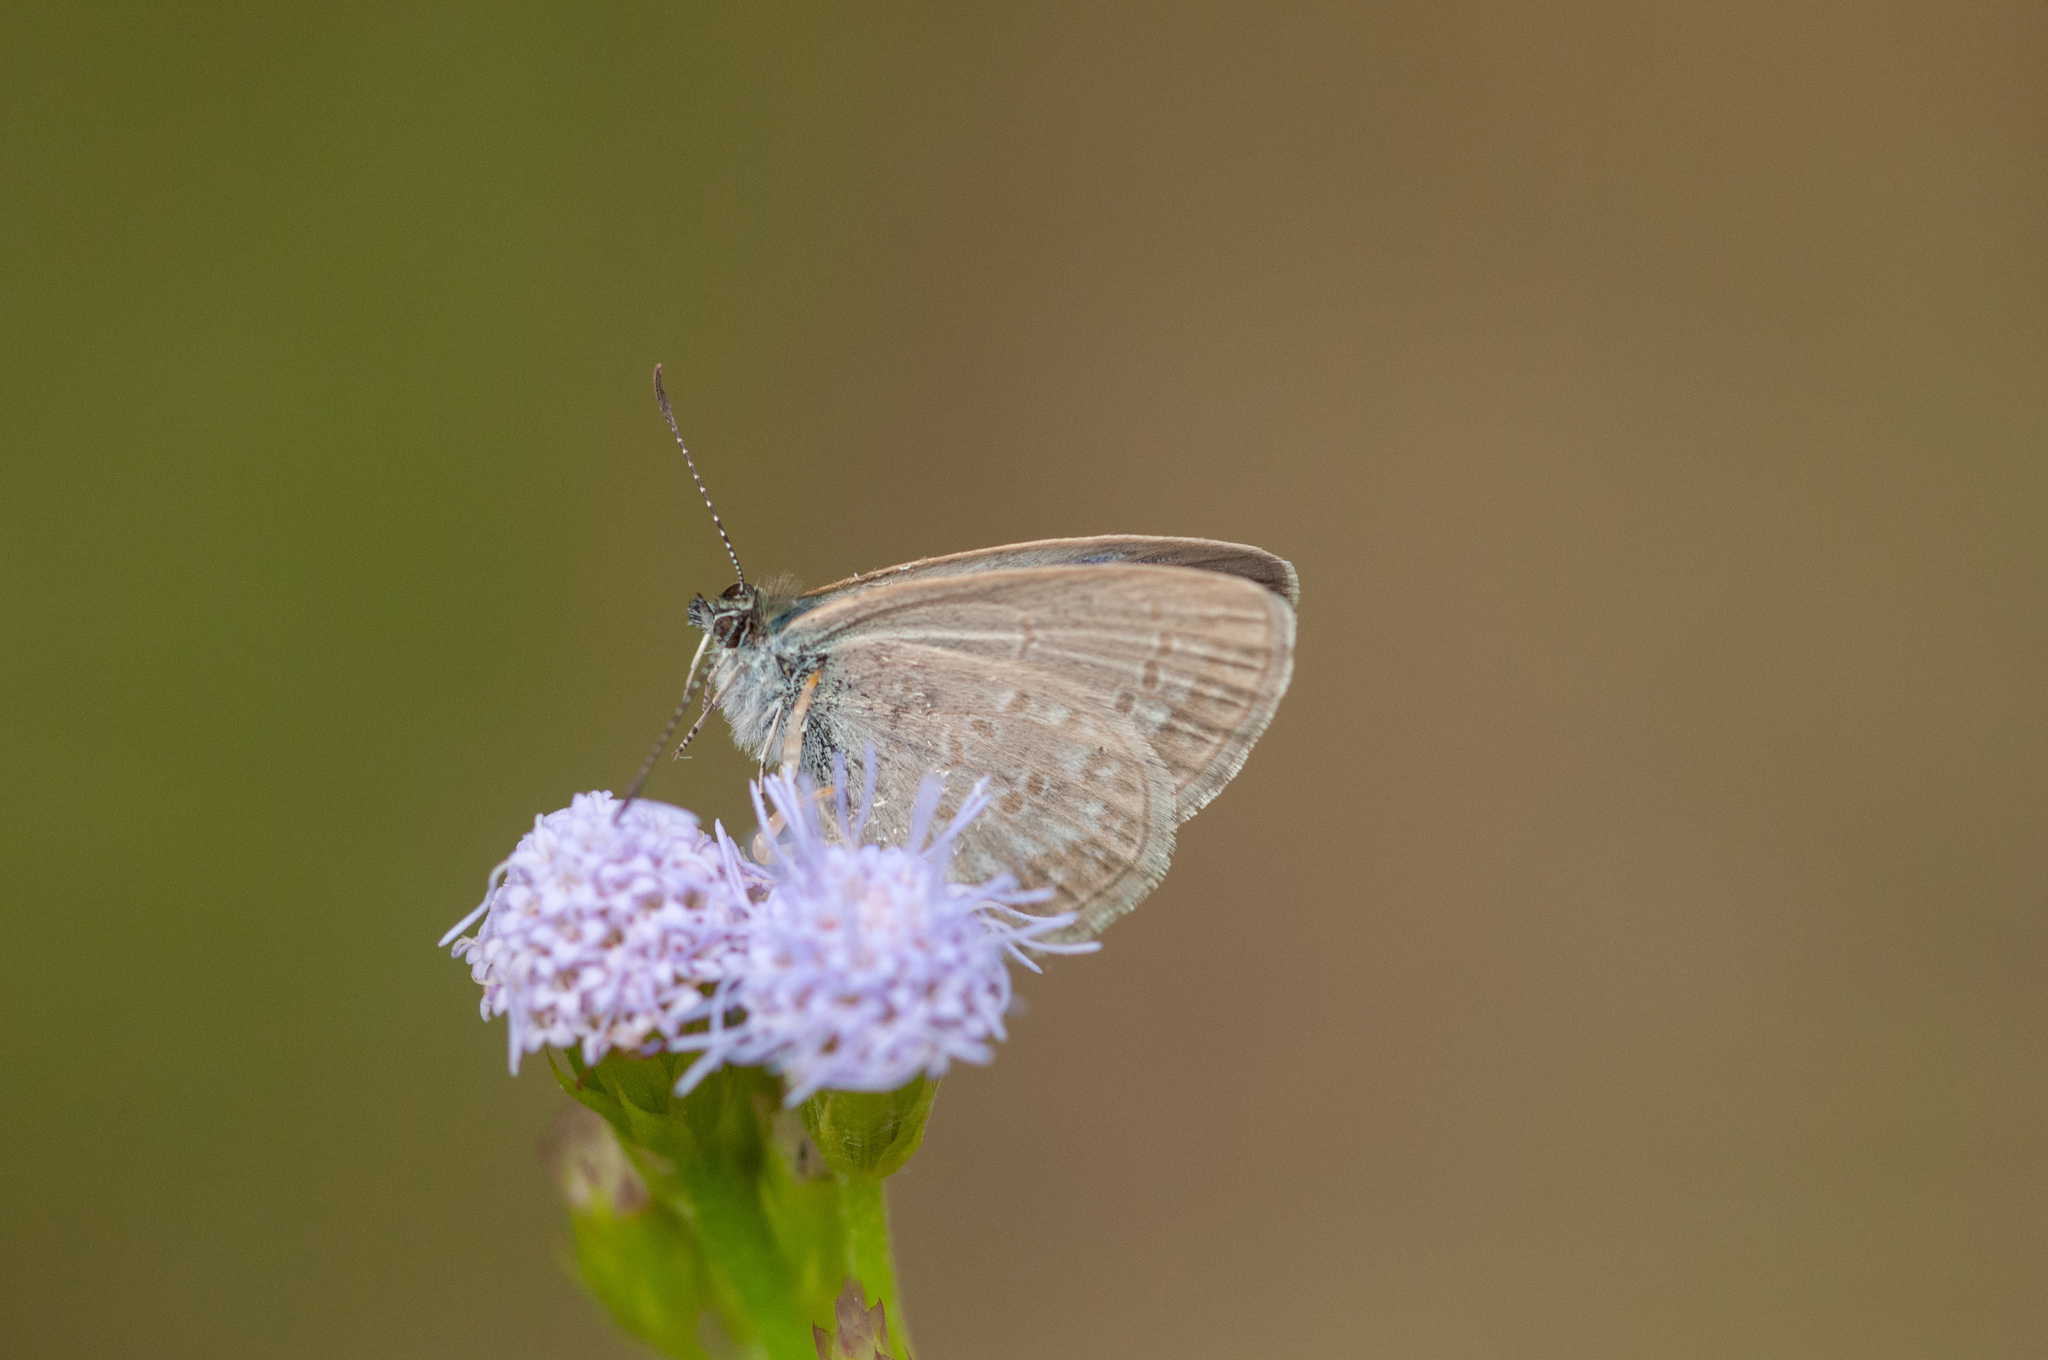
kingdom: Animalia
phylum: Arthropoda
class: Insecta
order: Lepidoptera
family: Lycaenidae
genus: Zizina
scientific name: Zizina otis
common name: Lesser grass blue
